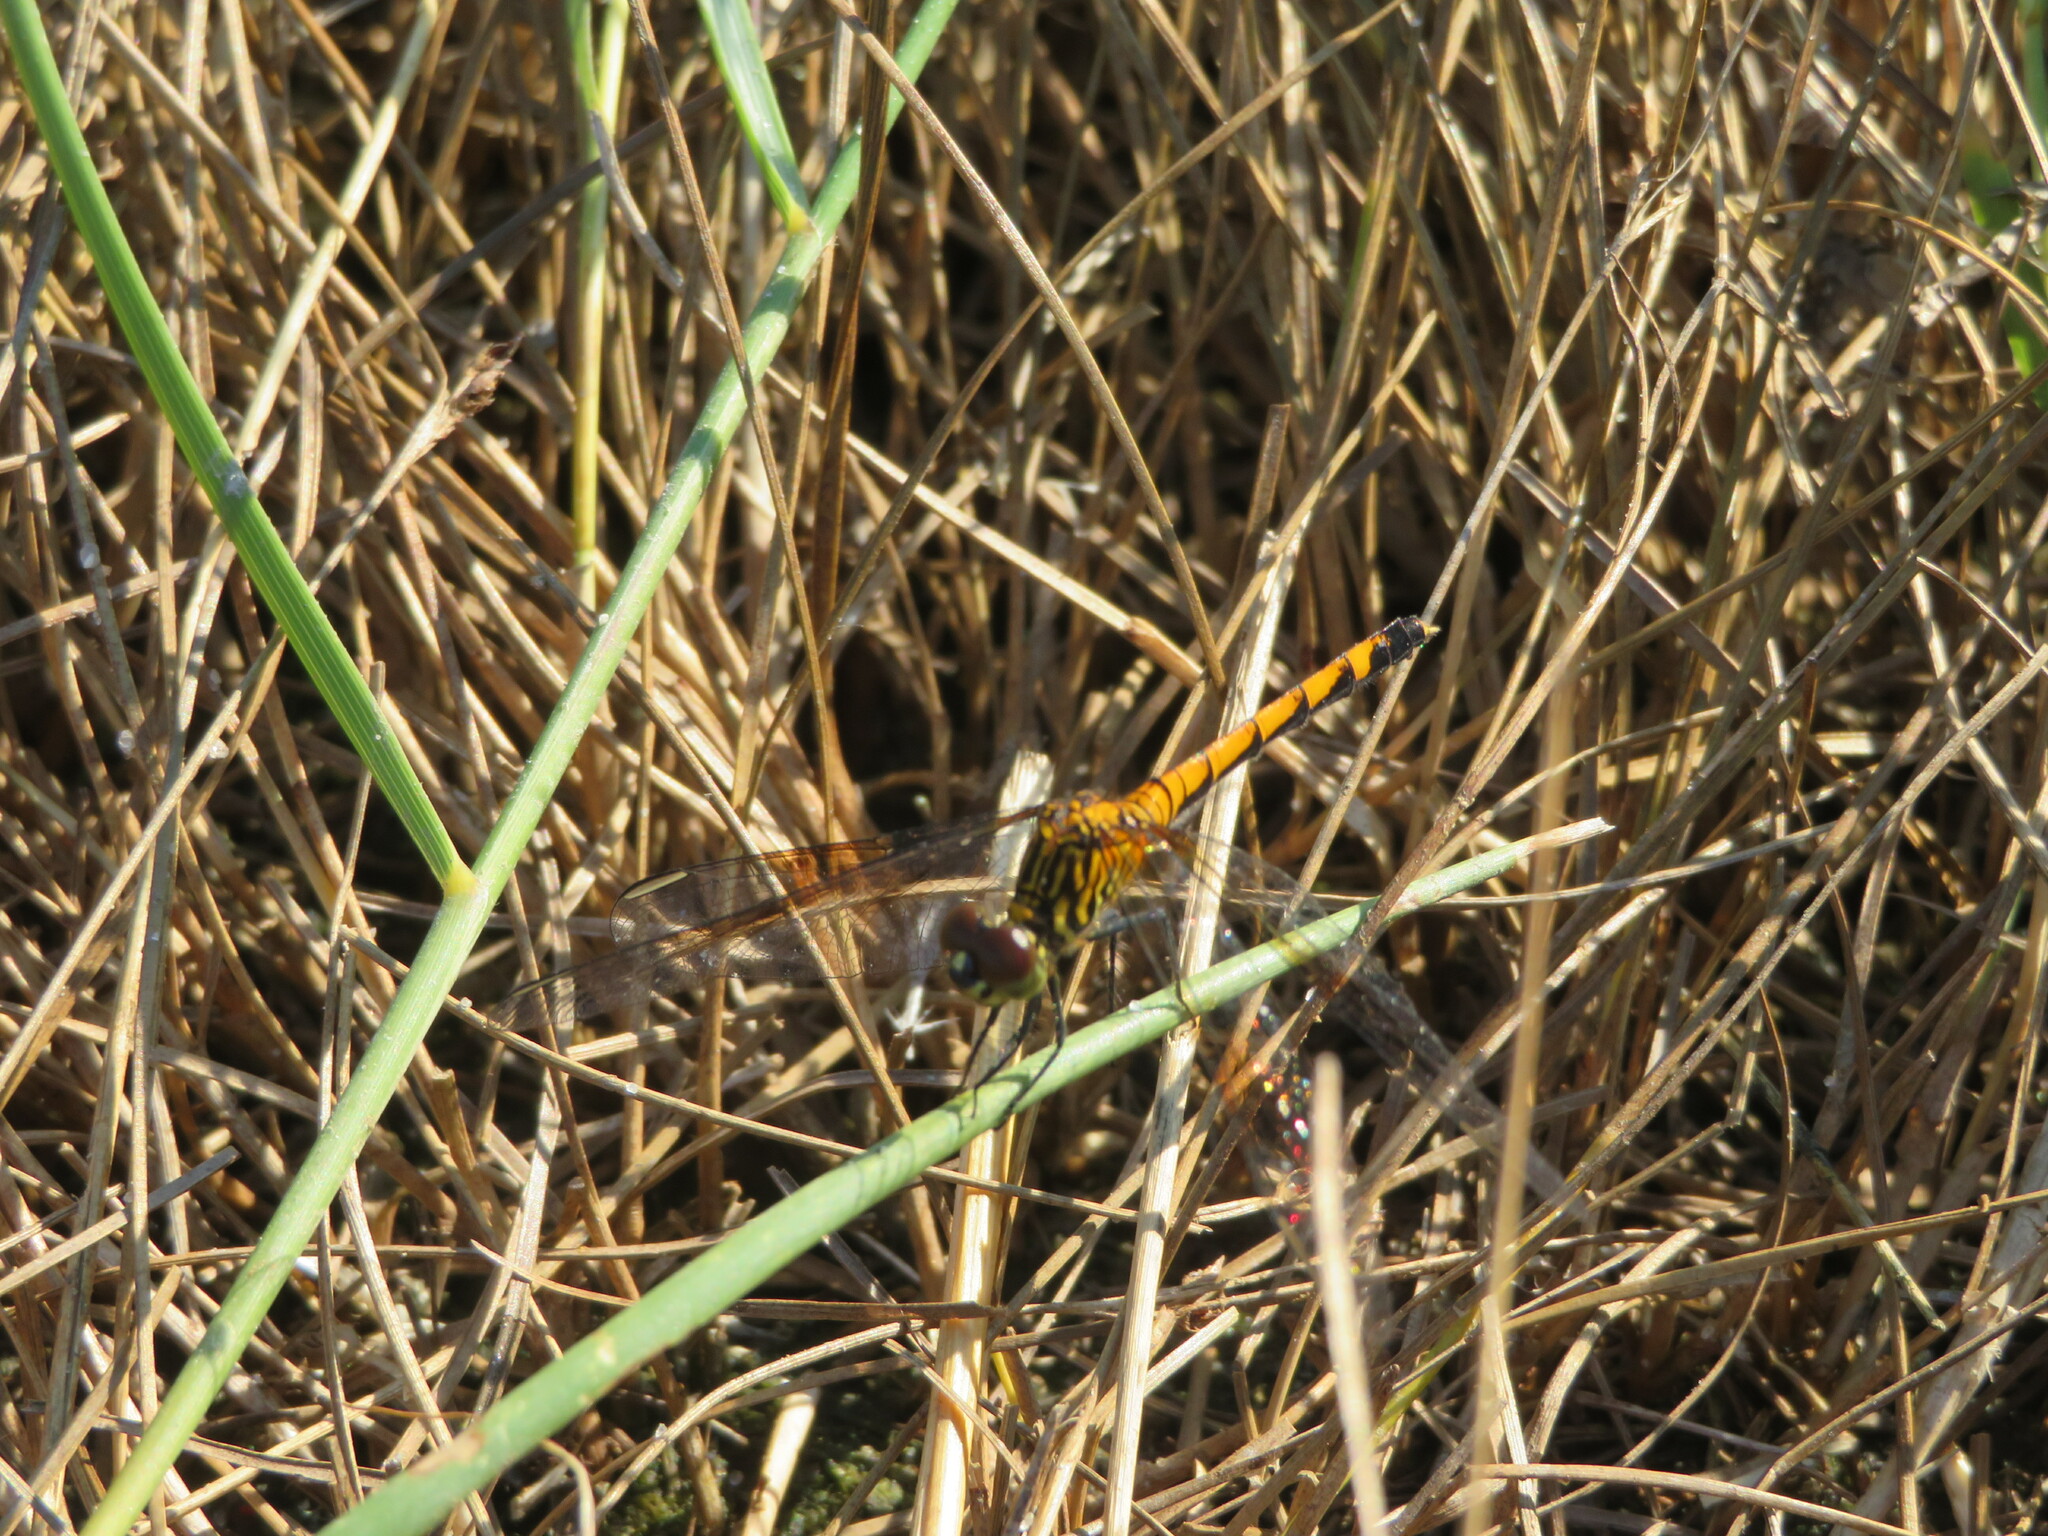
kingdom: Animalia
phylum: Arthropoda
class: Insecta
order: Odonata
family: Libellulidae
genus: Erythrodiplax
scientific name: Erythrodiplax berenice
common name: Seaside dragonlet
